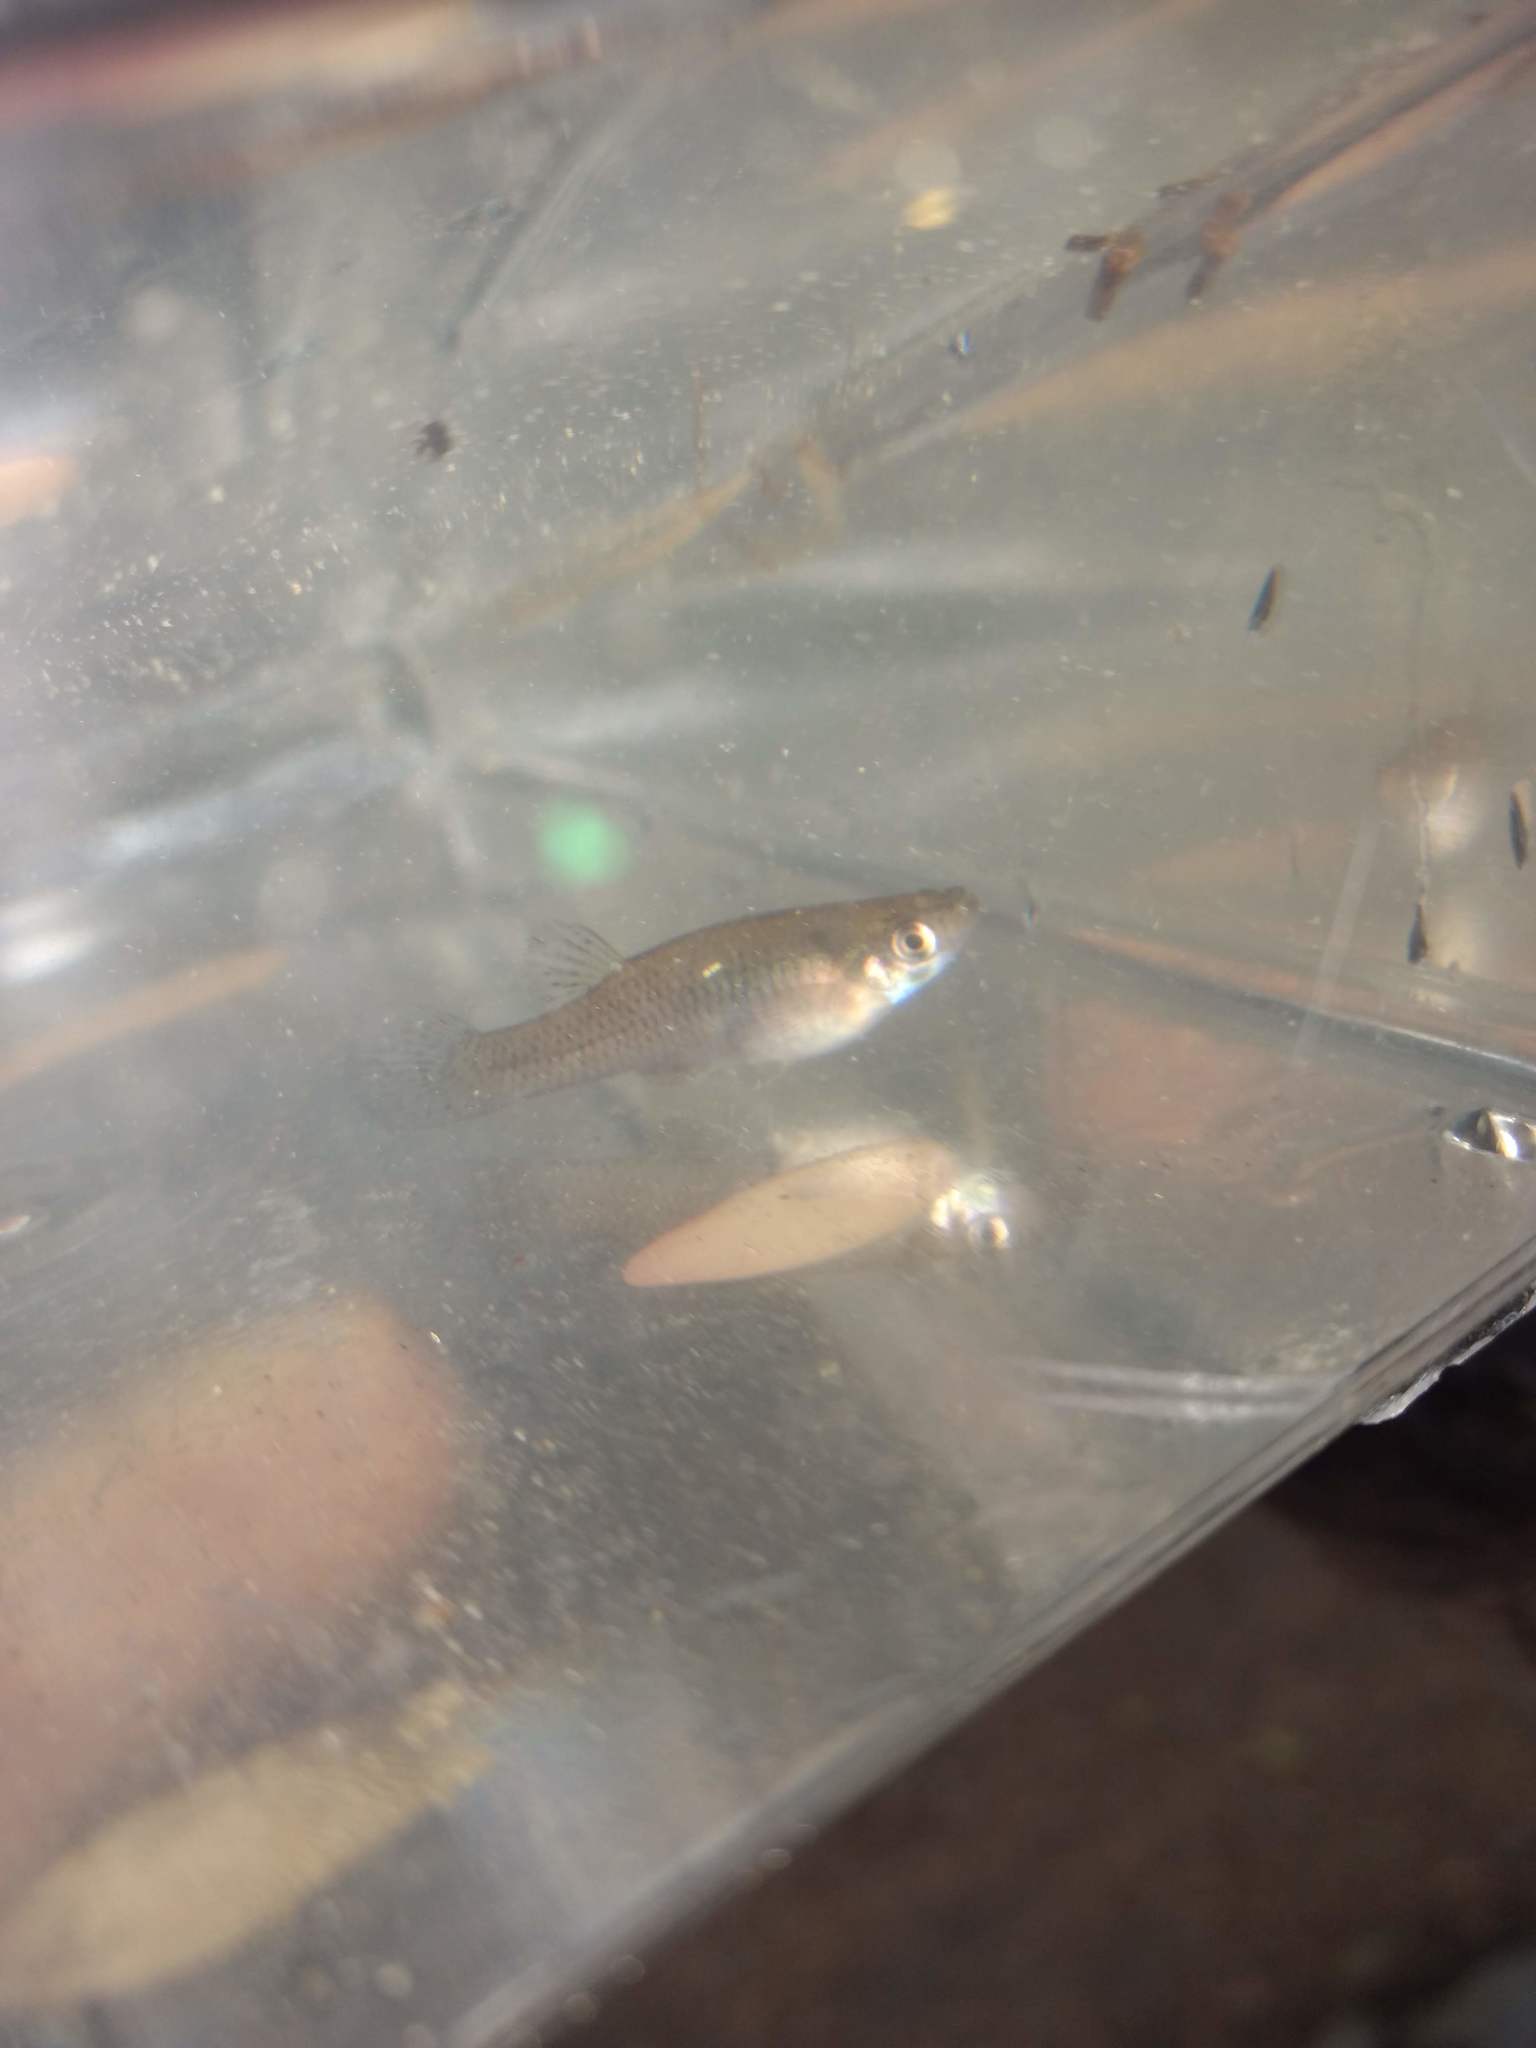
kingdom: Animalia
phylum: Chordata
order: Cyprinodontiformes
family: Poeciliidae
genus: Gambusia
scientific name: Gambusia affinis
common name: Mosquitofish
